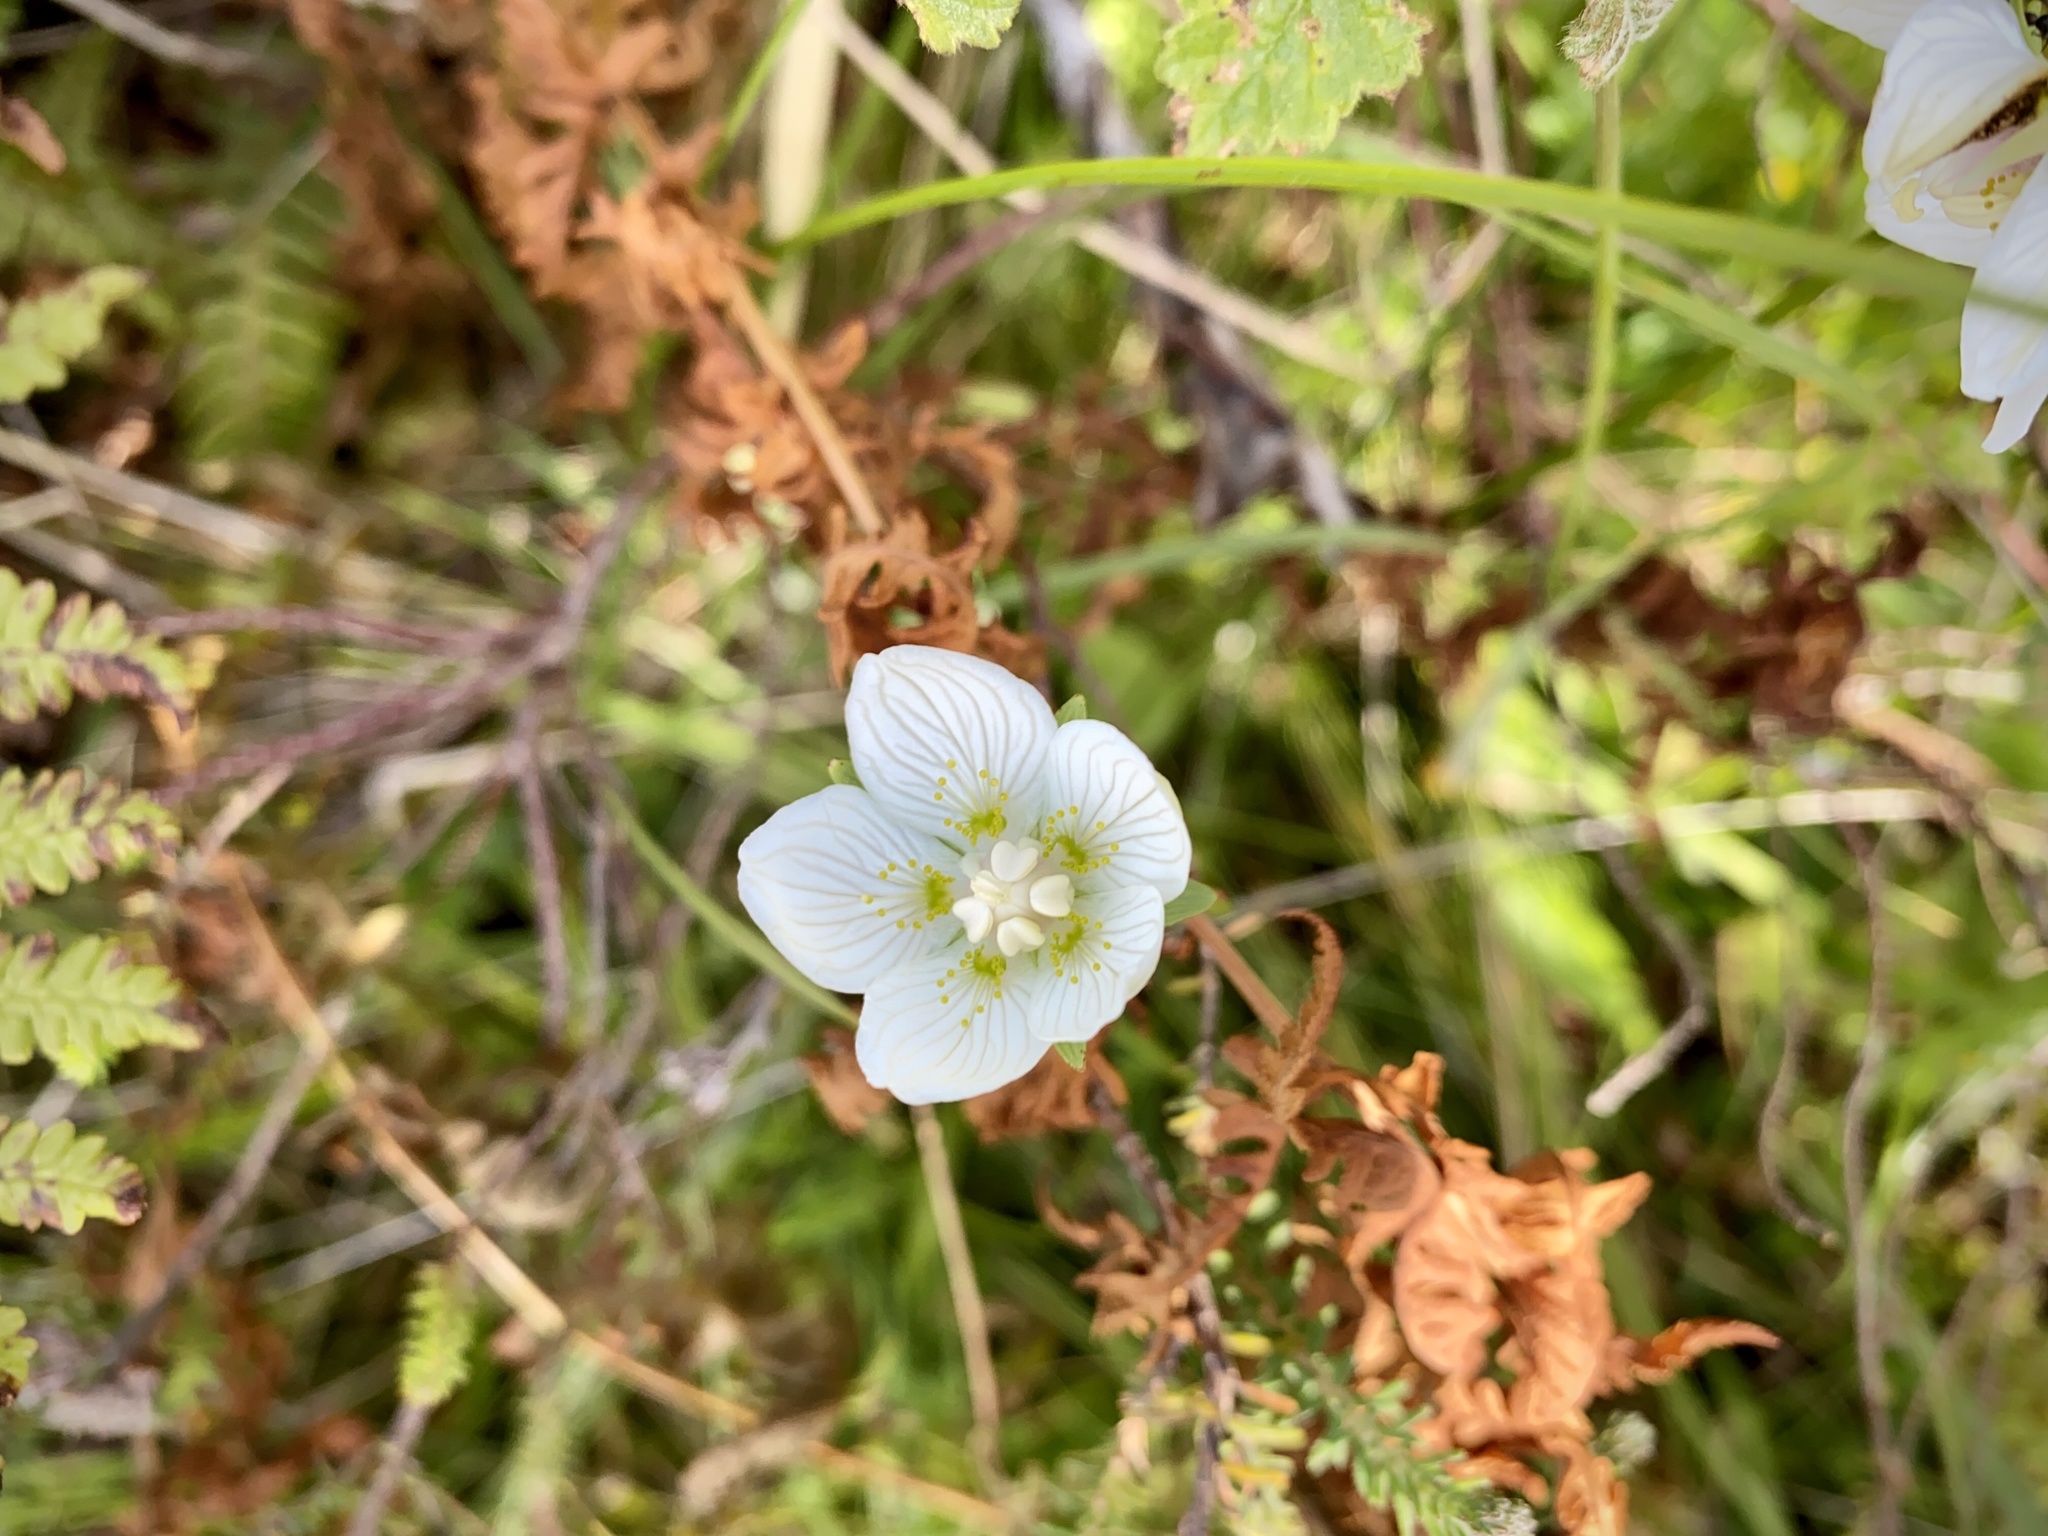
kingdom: Plantae
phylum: Tracheophyta
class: Magnoliopsida
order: Celastrales
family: Parnassiaceae
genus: Parnassia
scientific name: Parnassia palustris
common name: Grass-of-parnassus
